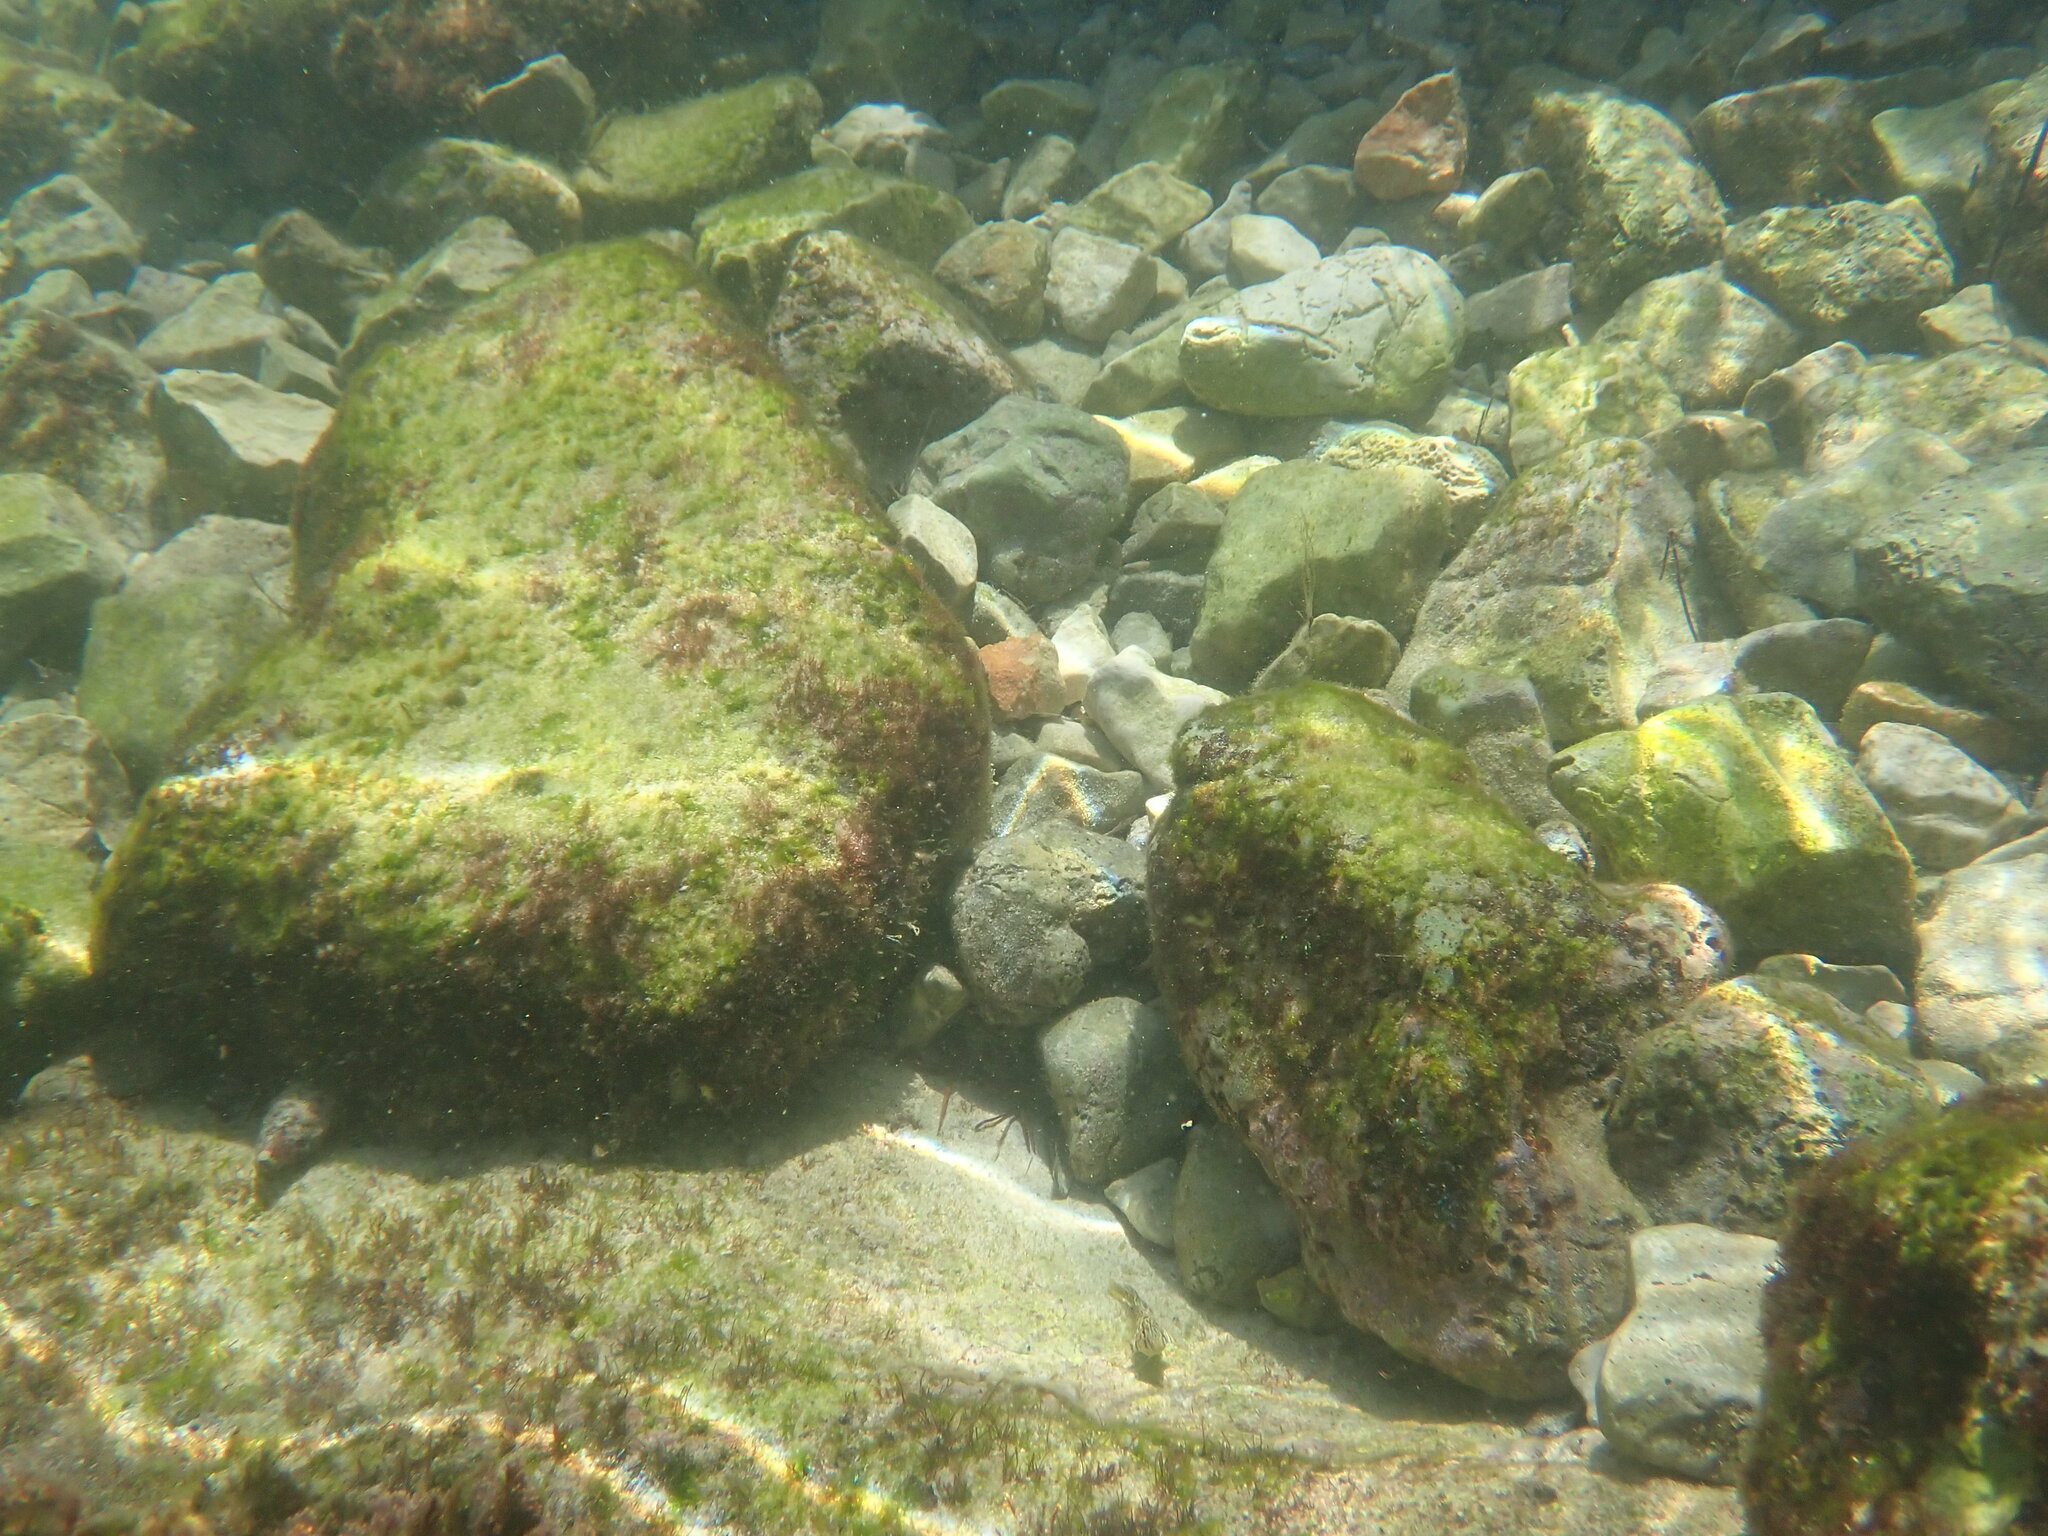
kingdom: Animalia
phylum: Chordata
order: Perciformes
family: Blenniidae
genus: Parablennius
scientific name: Parablennius sanguinolentus
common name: Black sea blenny
